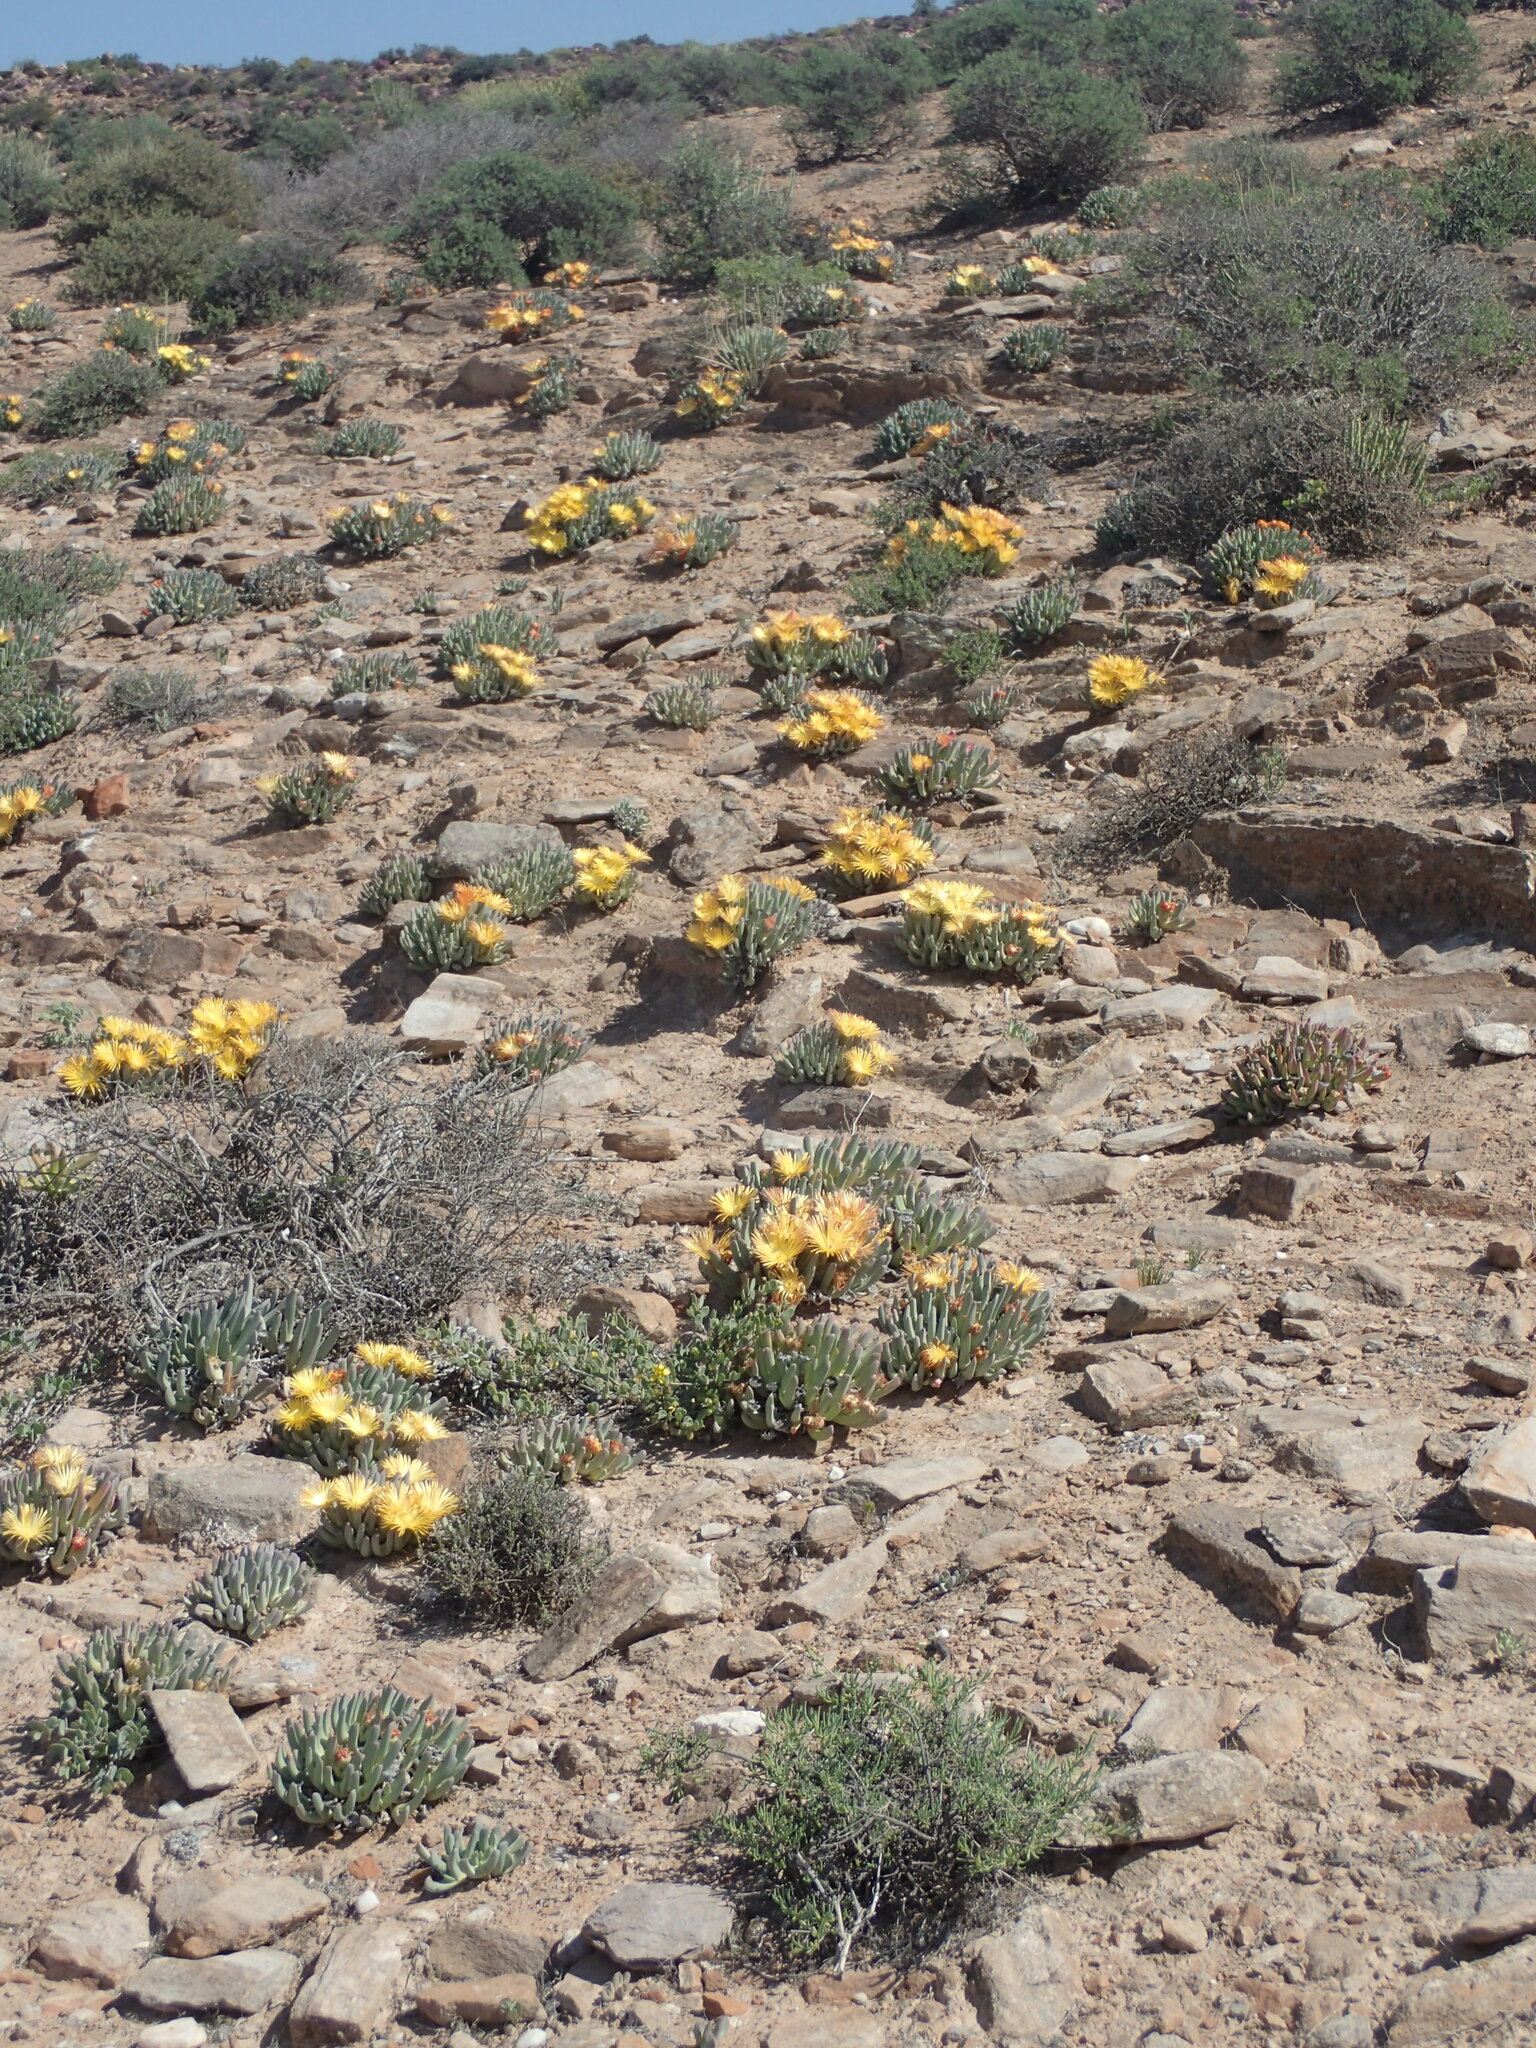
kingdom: Plantae
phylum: Tracheophyta
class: Magnoliopsida
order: Caryophyllales
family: Aizoaceae
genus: Cheiridopsis
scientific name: Cheiridopsis robusta
